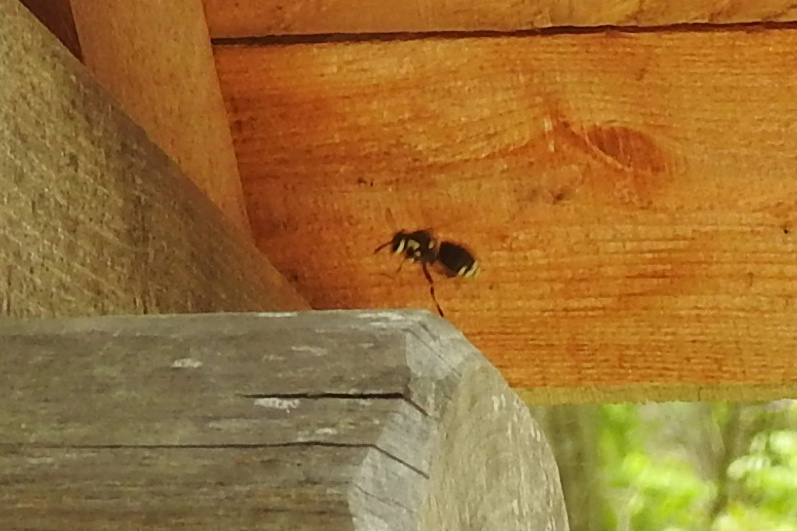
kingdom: Animalia
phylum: Arthropoda
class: Insecta
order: Hymenoptera
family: Vespidae
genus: Dolichovespula
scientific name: Dolichovespula maculata
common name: Bald-faced hornet
